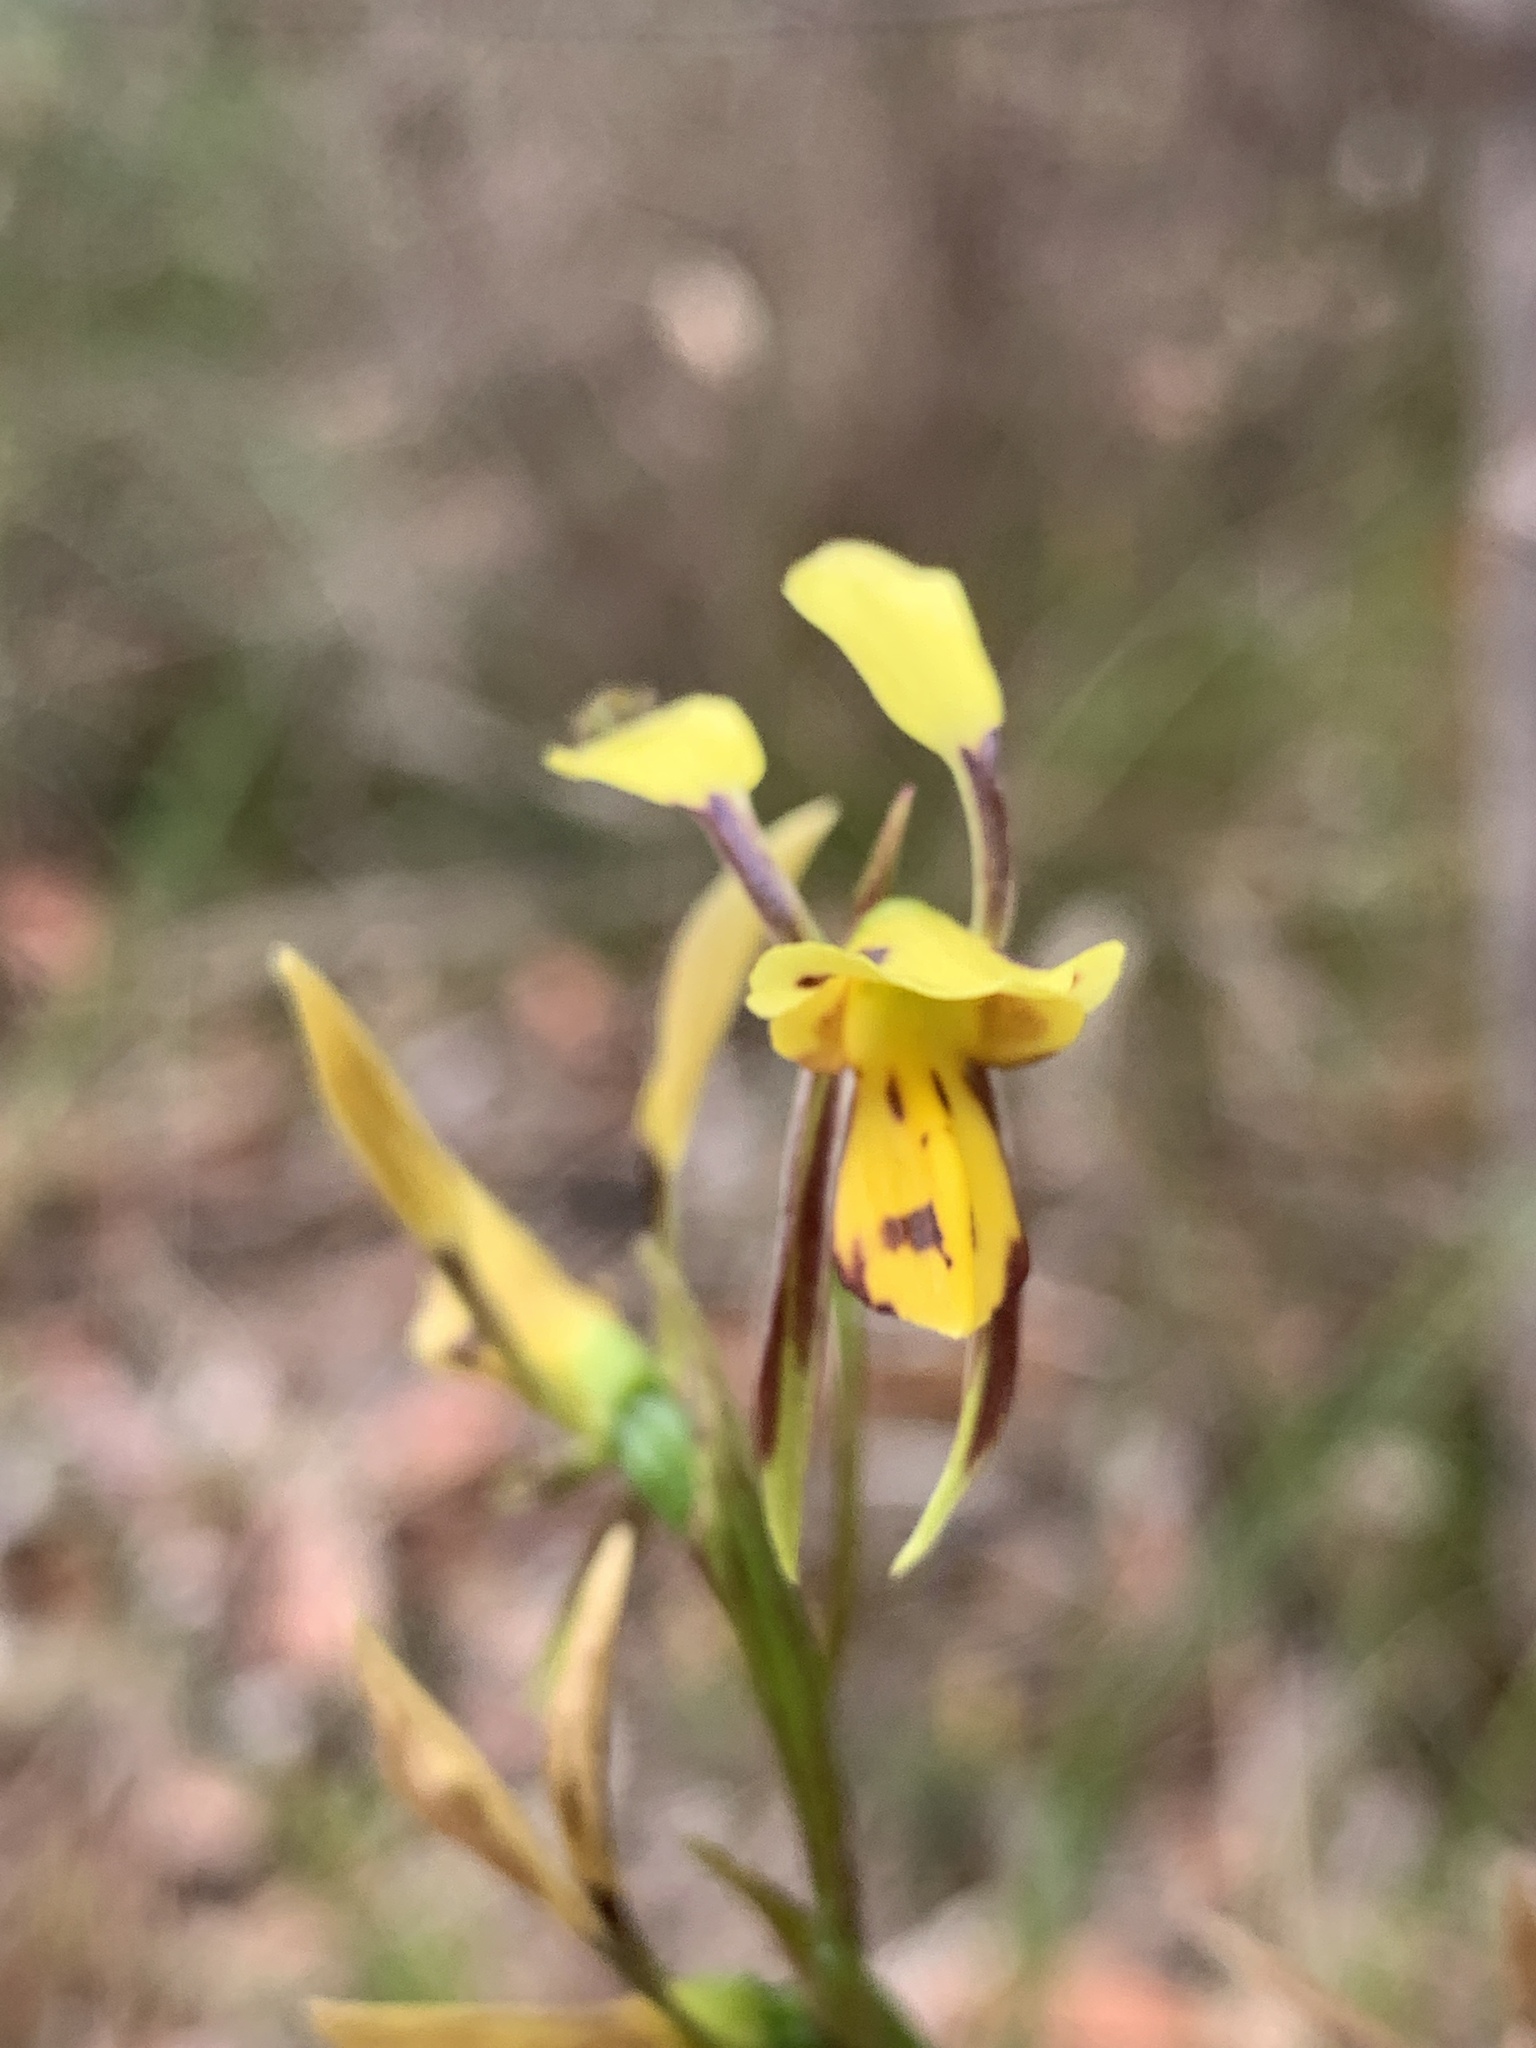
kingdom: Plantae
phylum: Tracheophyta
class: Liliopsida
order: Asparagales
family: Orchidaceae
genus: Diuris
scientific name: Diuris sulphurea
